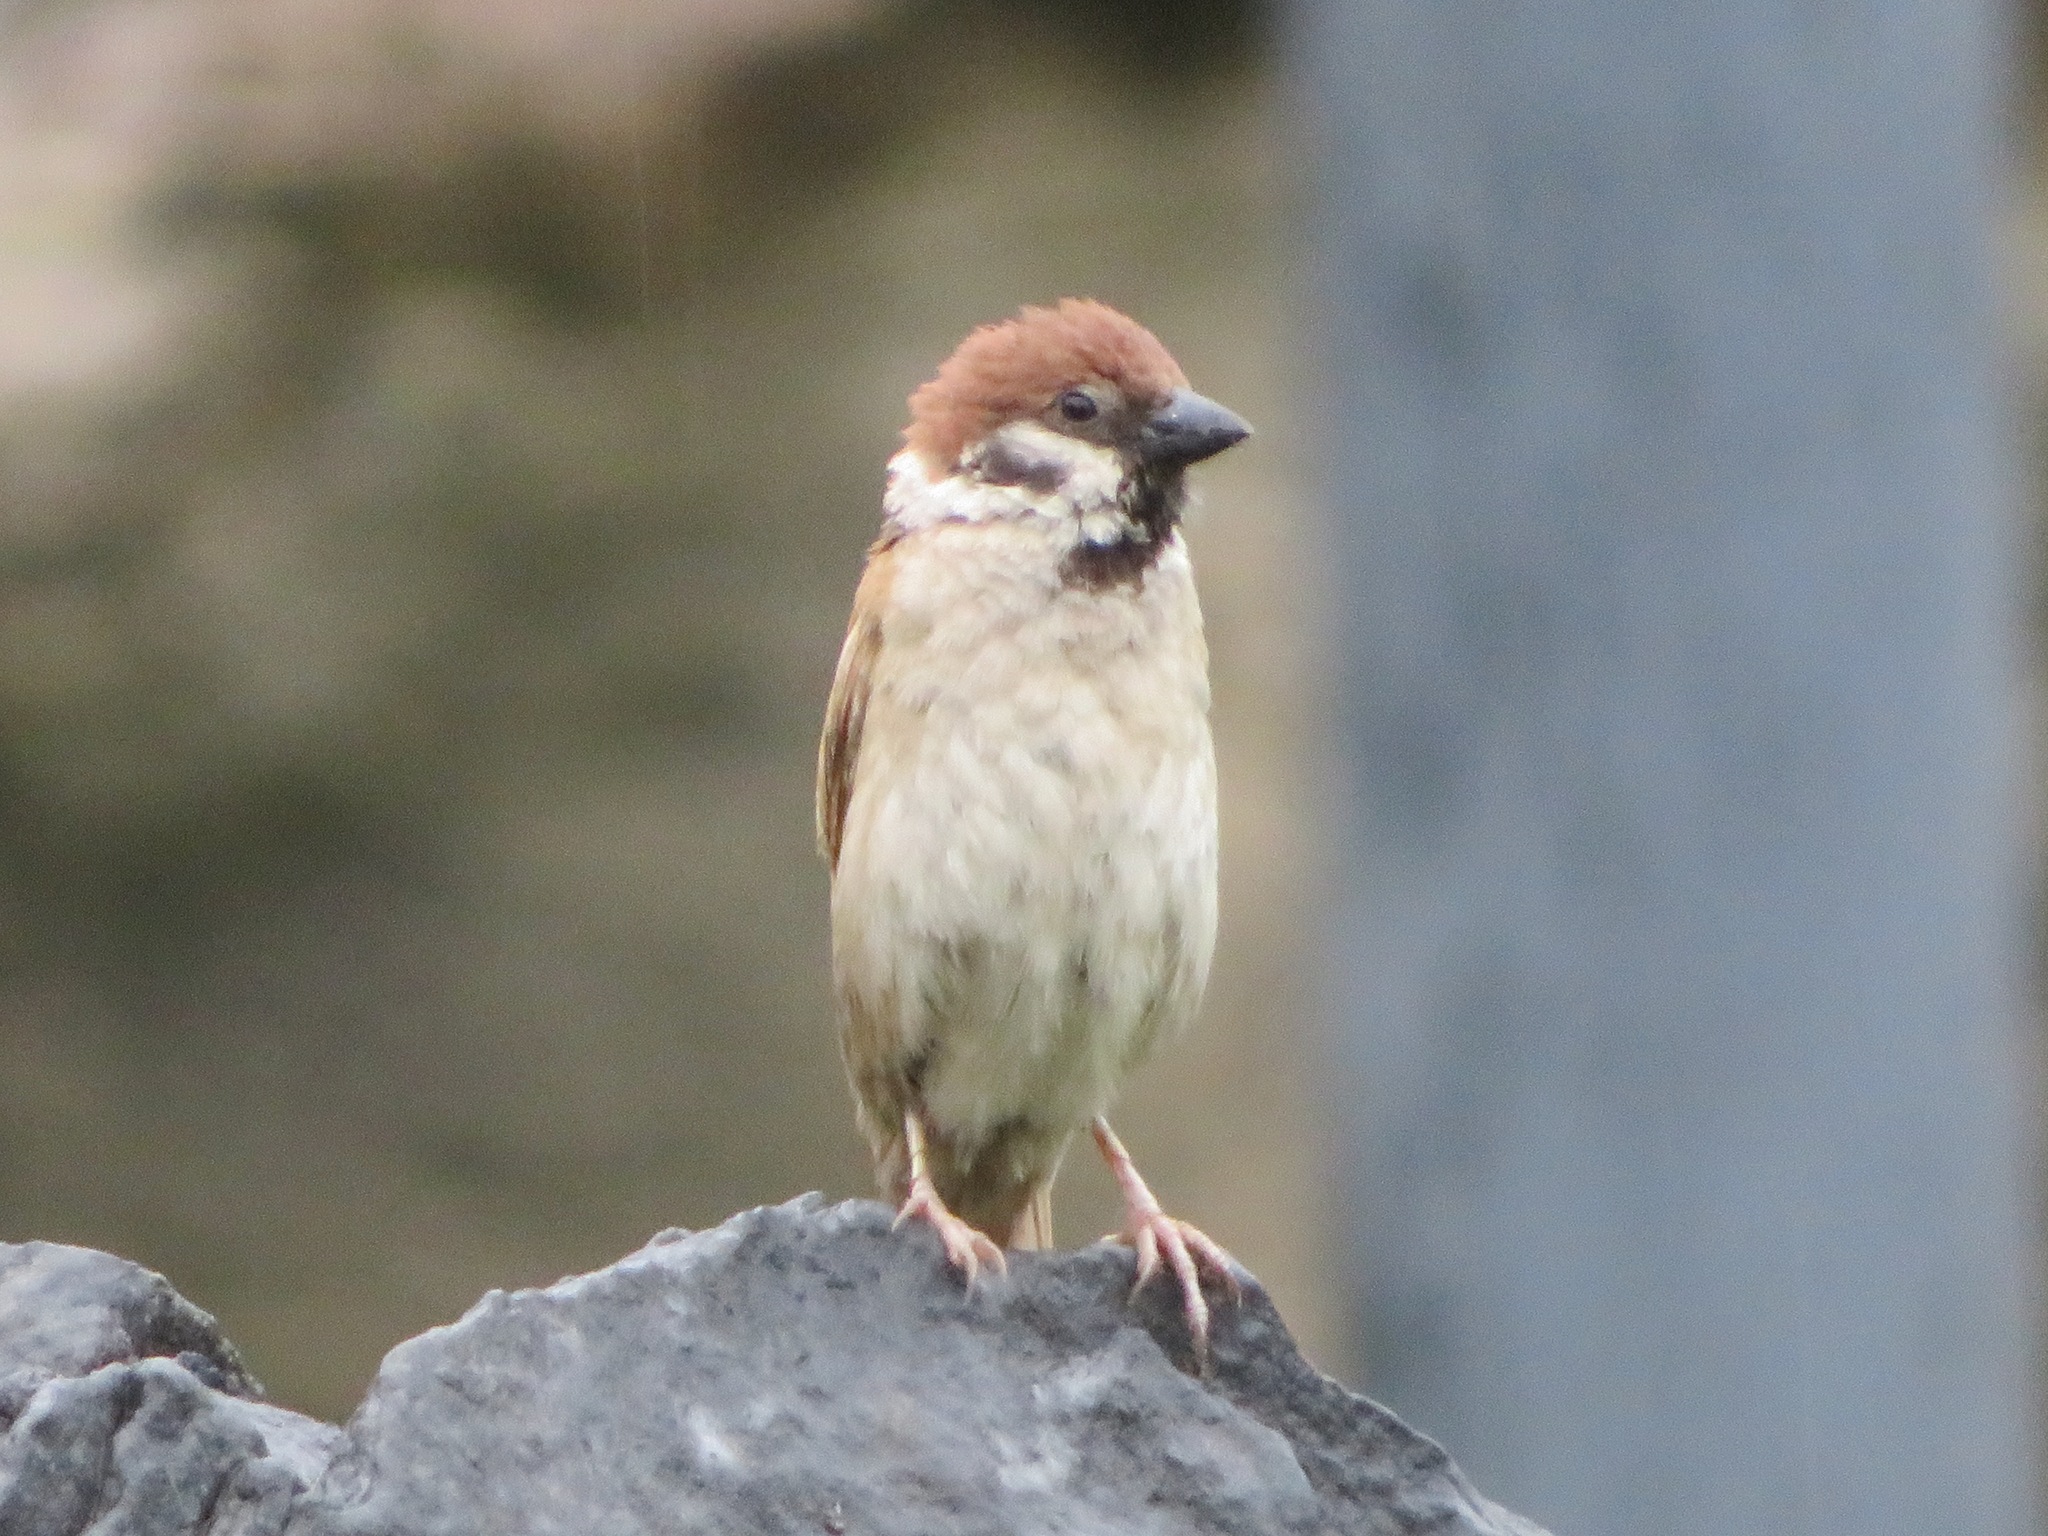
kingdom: Animalia
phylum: Chordata
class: Aves
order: Passeriformes
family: Passeridae
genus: Passer
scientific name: Passer montanus
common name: Eurasian tree sparrow
